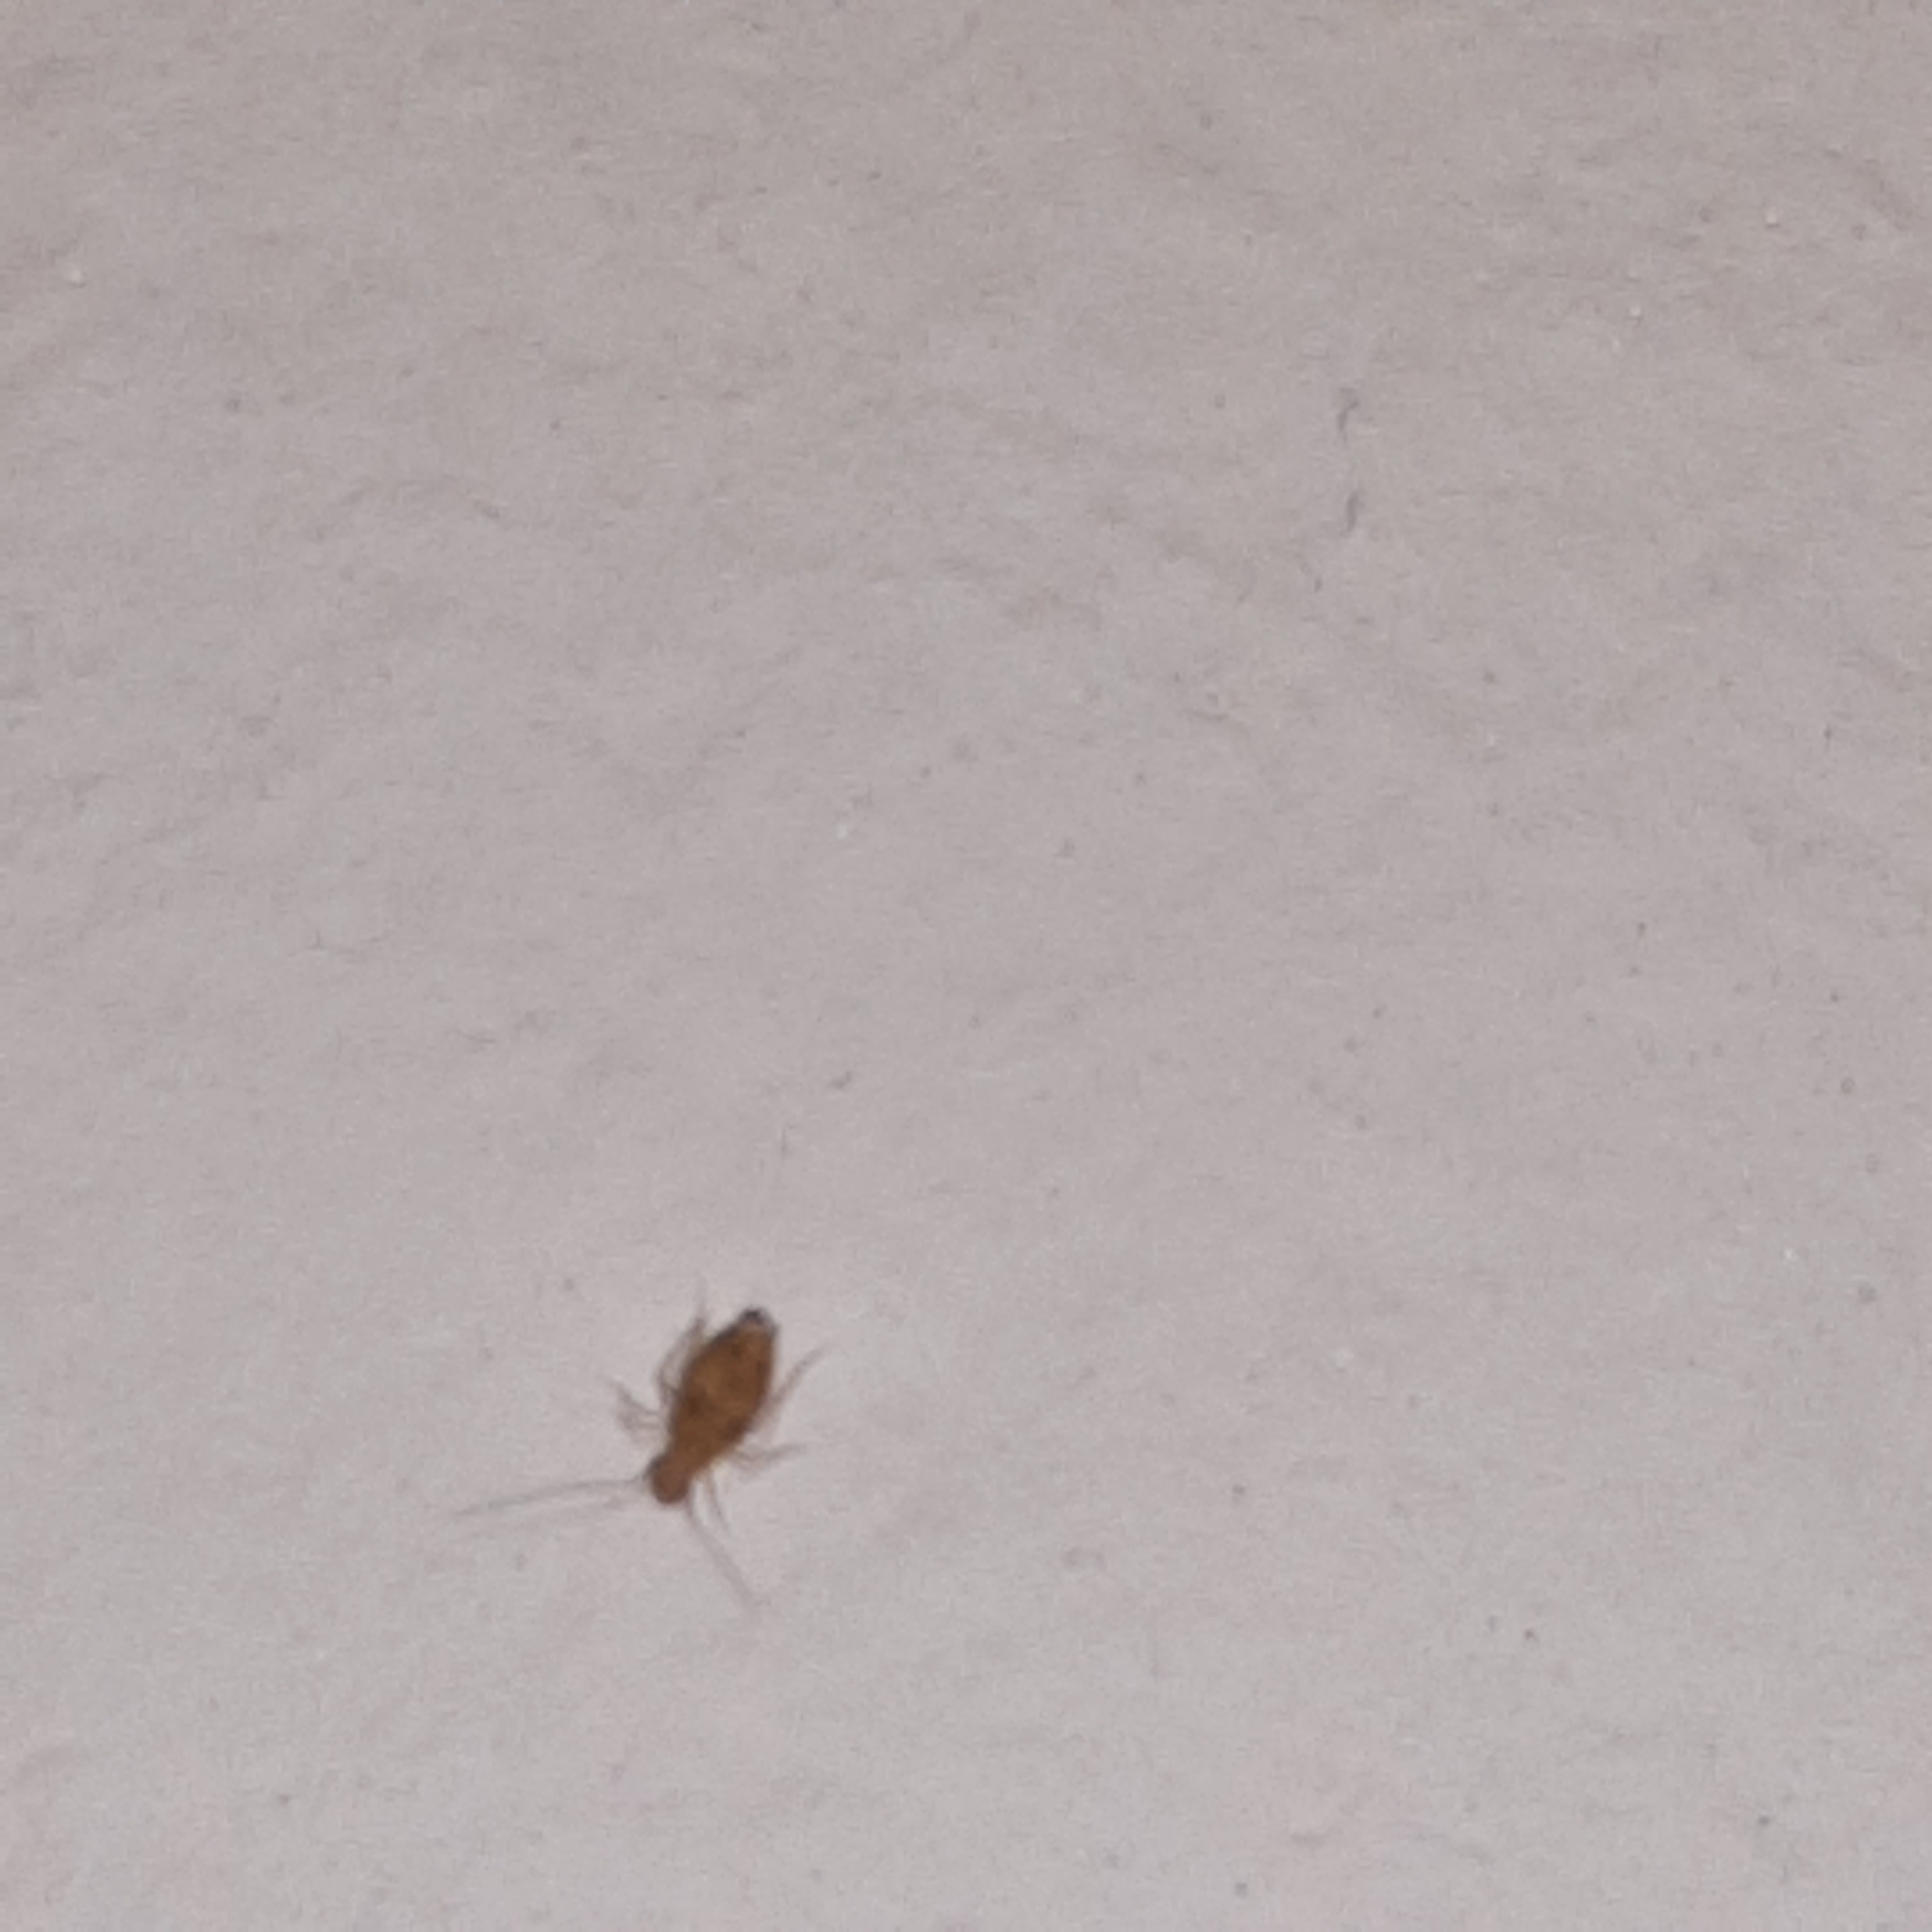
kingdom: Animalia
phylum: Arthropoda
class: Insecta
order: Psocodea
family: Psyllipsocidae
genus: Dorypteryx
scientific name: Dorypteryx
